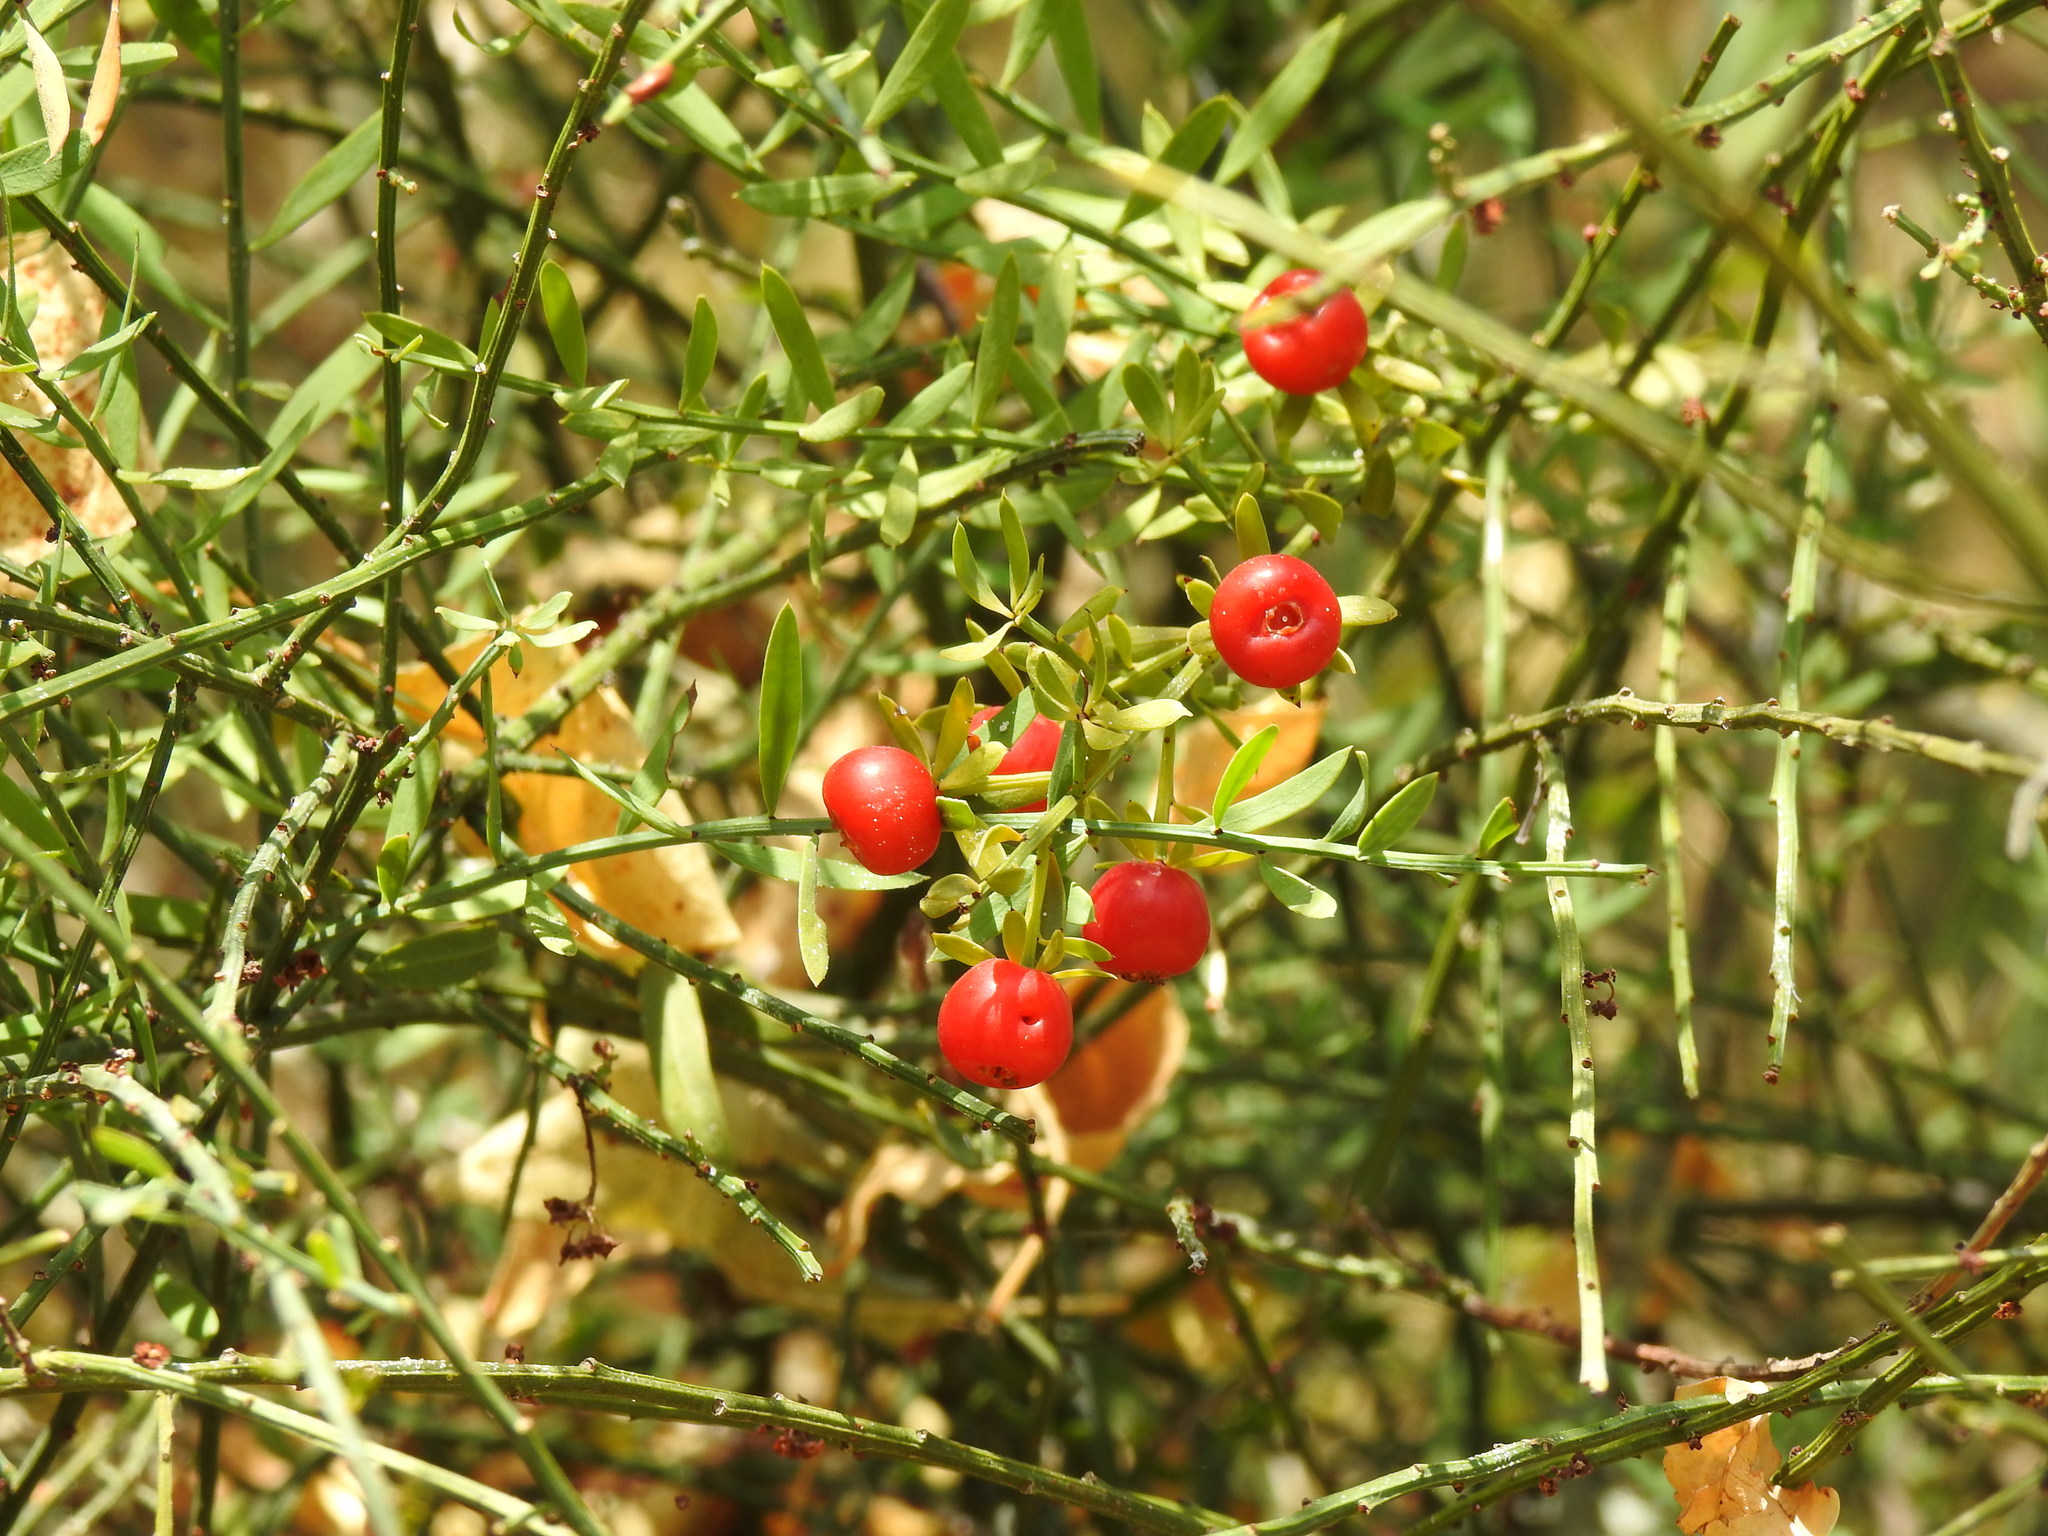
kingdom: Plantae
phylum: Tracheophyta
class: Magnoliopsida
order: Santalales
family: Santalaceae
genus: Osyris
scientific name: Osyris alba
